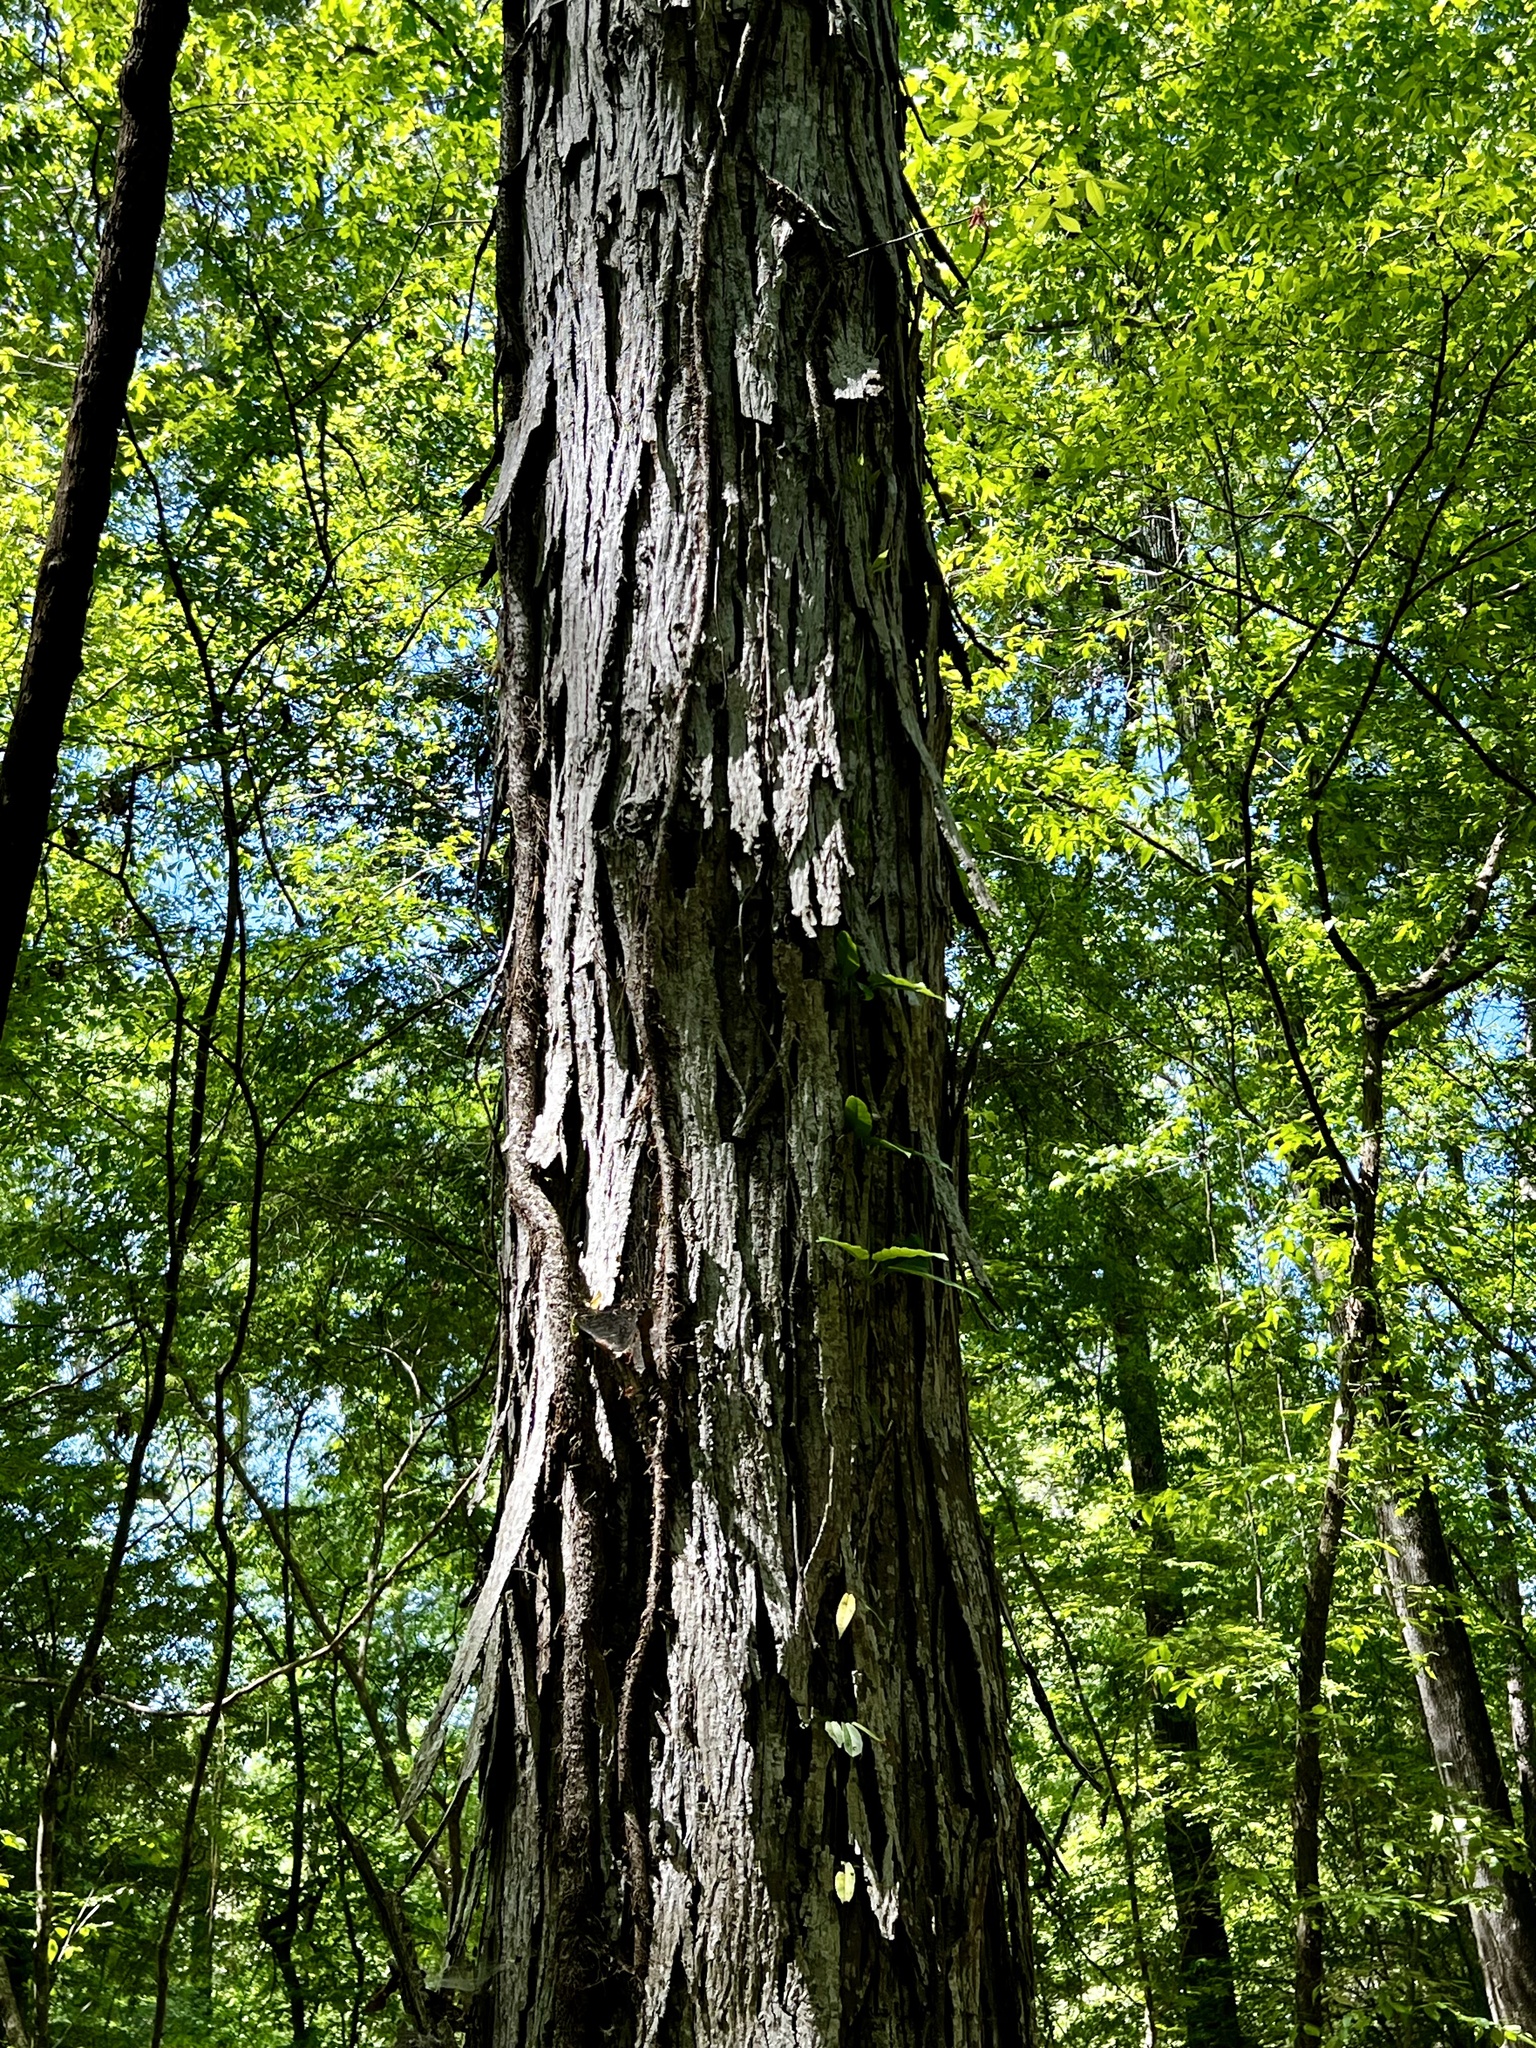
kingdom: Plantae
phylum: Tracheophyta
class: Magnoliopsida
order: Fagales
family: Juglandaceae
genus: Carya
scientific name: Carya ovata
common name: Shagbark hickory
